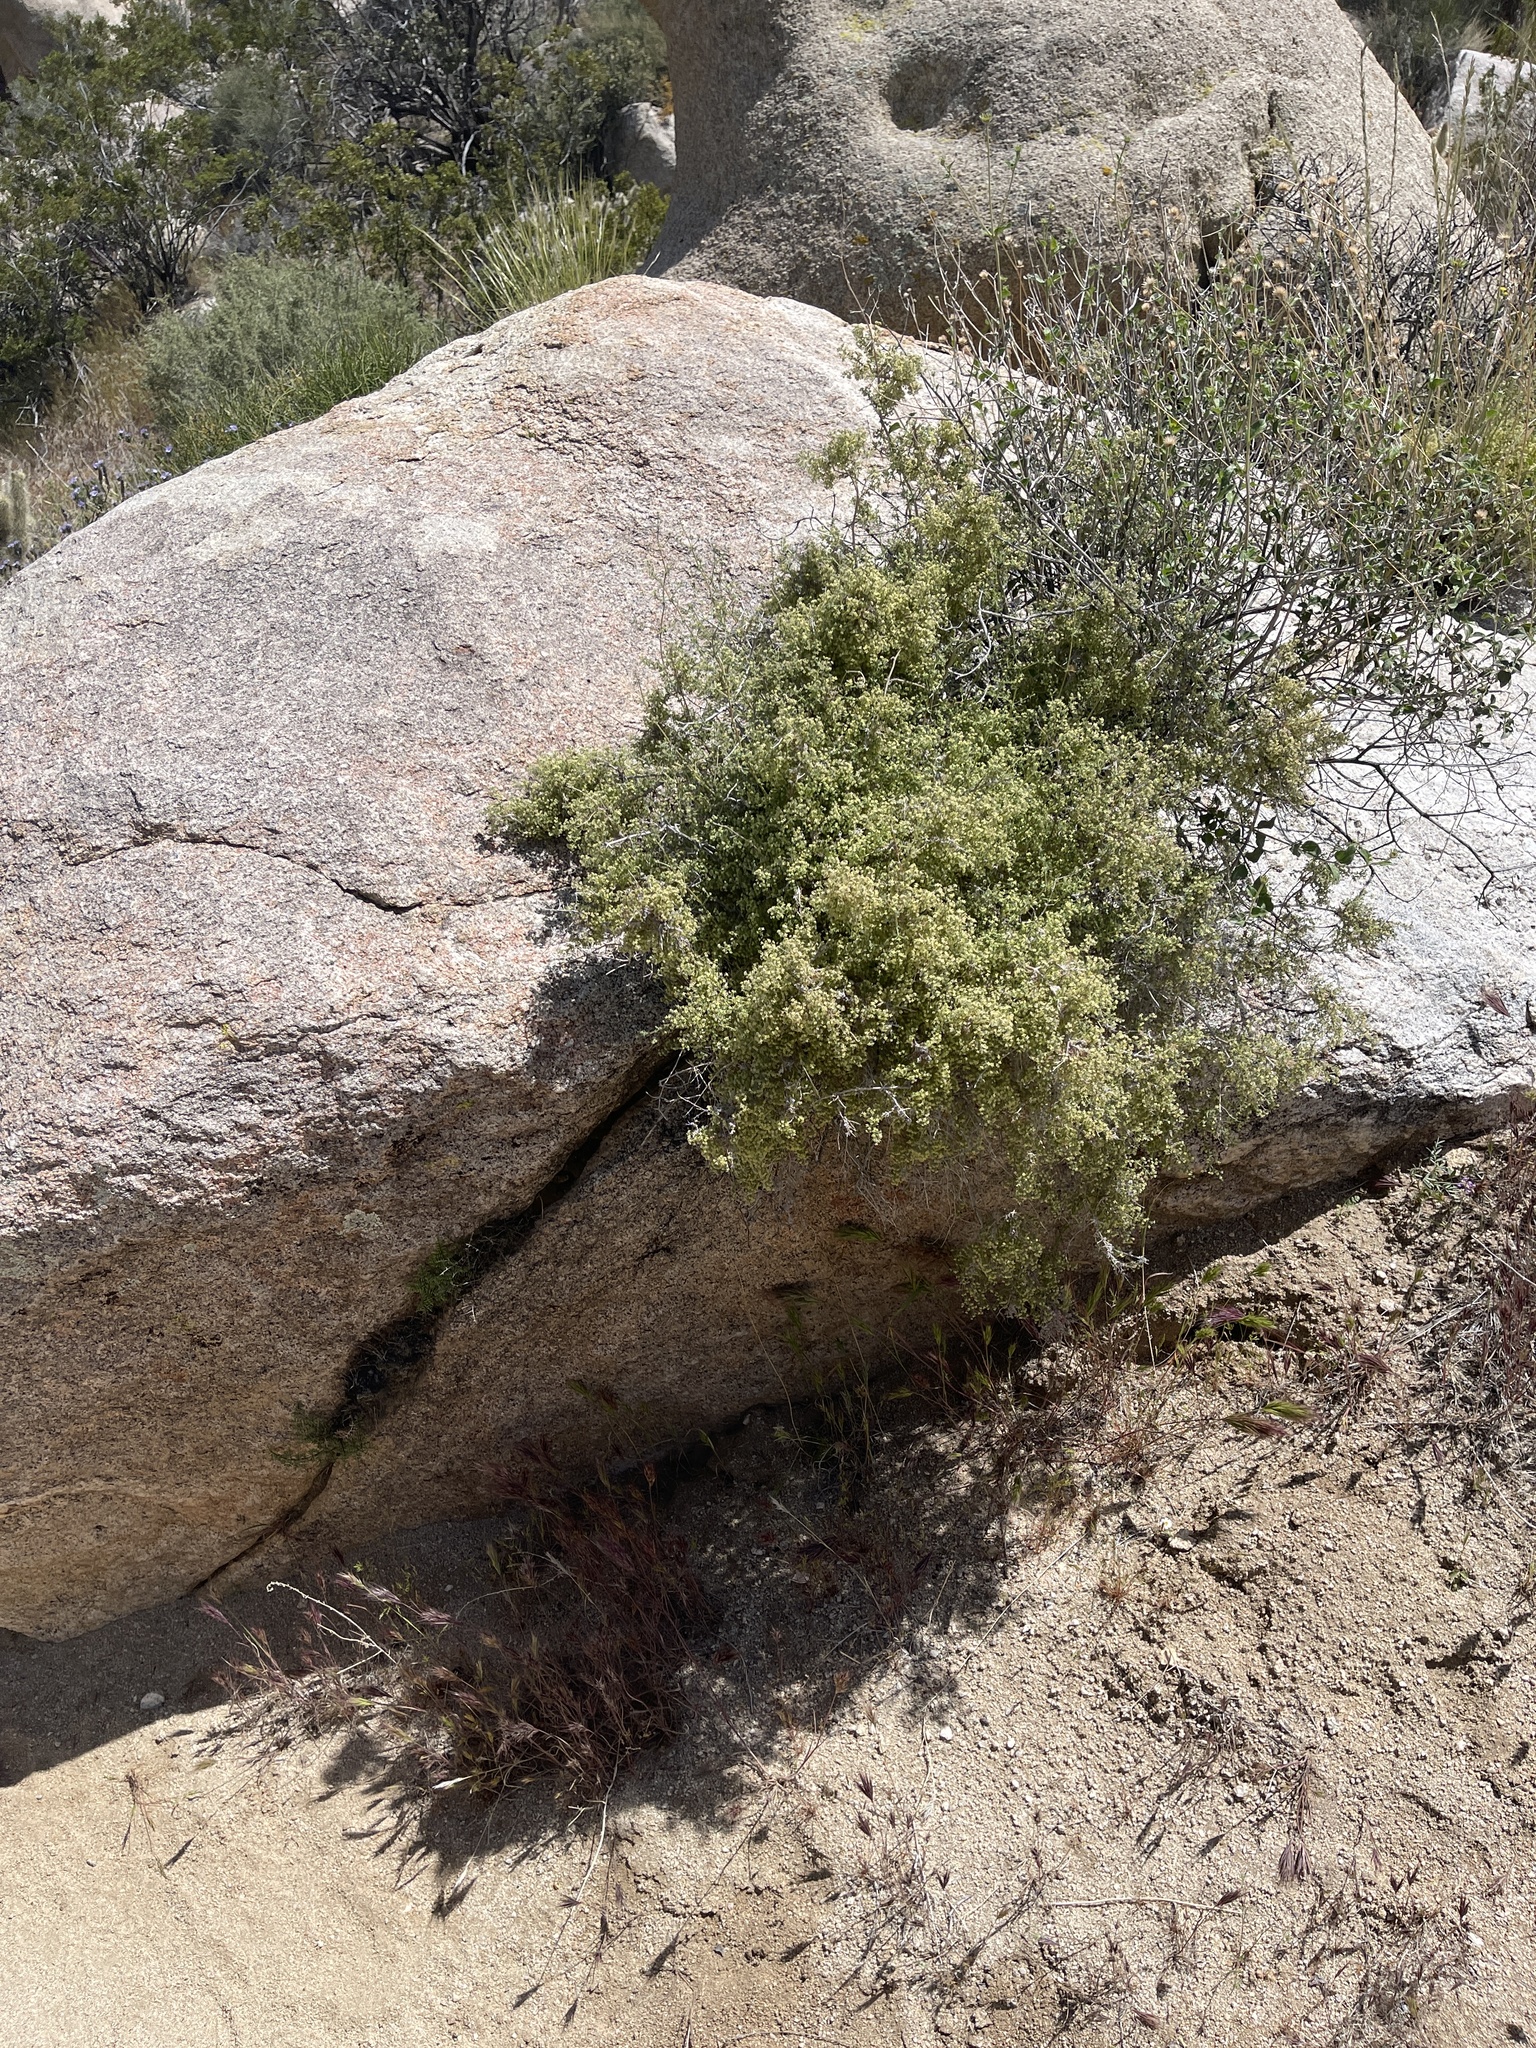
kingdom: Plantae
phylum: Tracheophyta
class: Magnoliopsida
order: Gentianales
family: Rubiaceae
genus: Galium
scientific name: Galium stellatum
